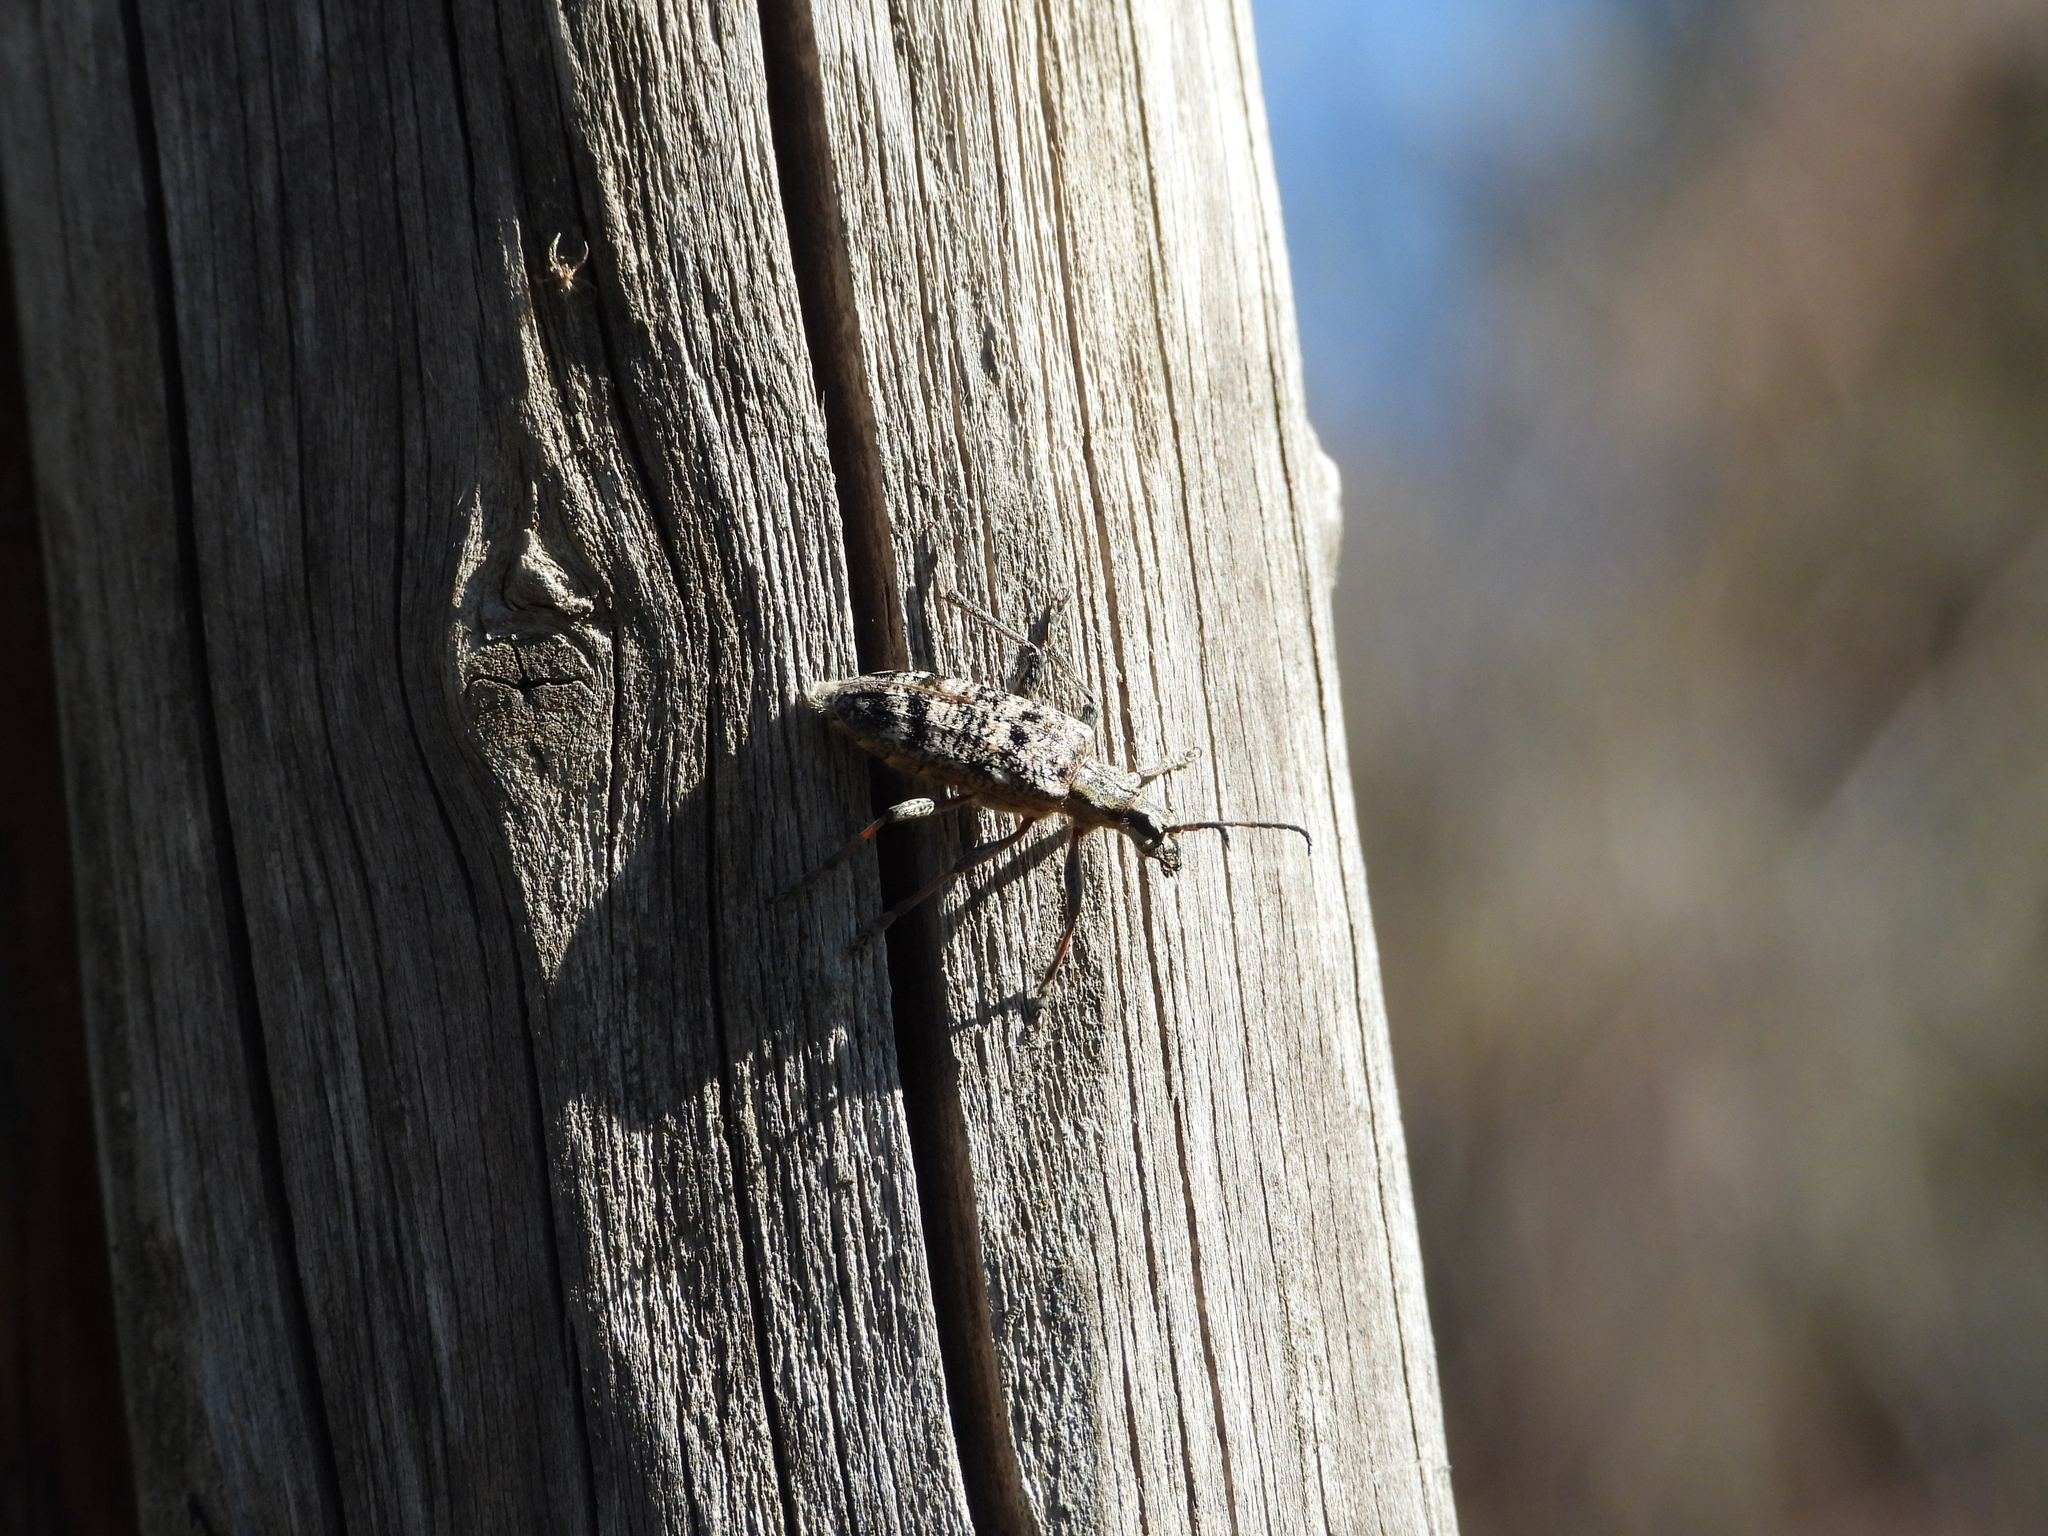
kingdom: Animalia
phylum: Arthropoda
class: Insecta
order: Coleoptera
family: Cerambycidae
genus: Rhagium
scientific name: Rhagium inquisitor
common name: Ribbed pine borer
